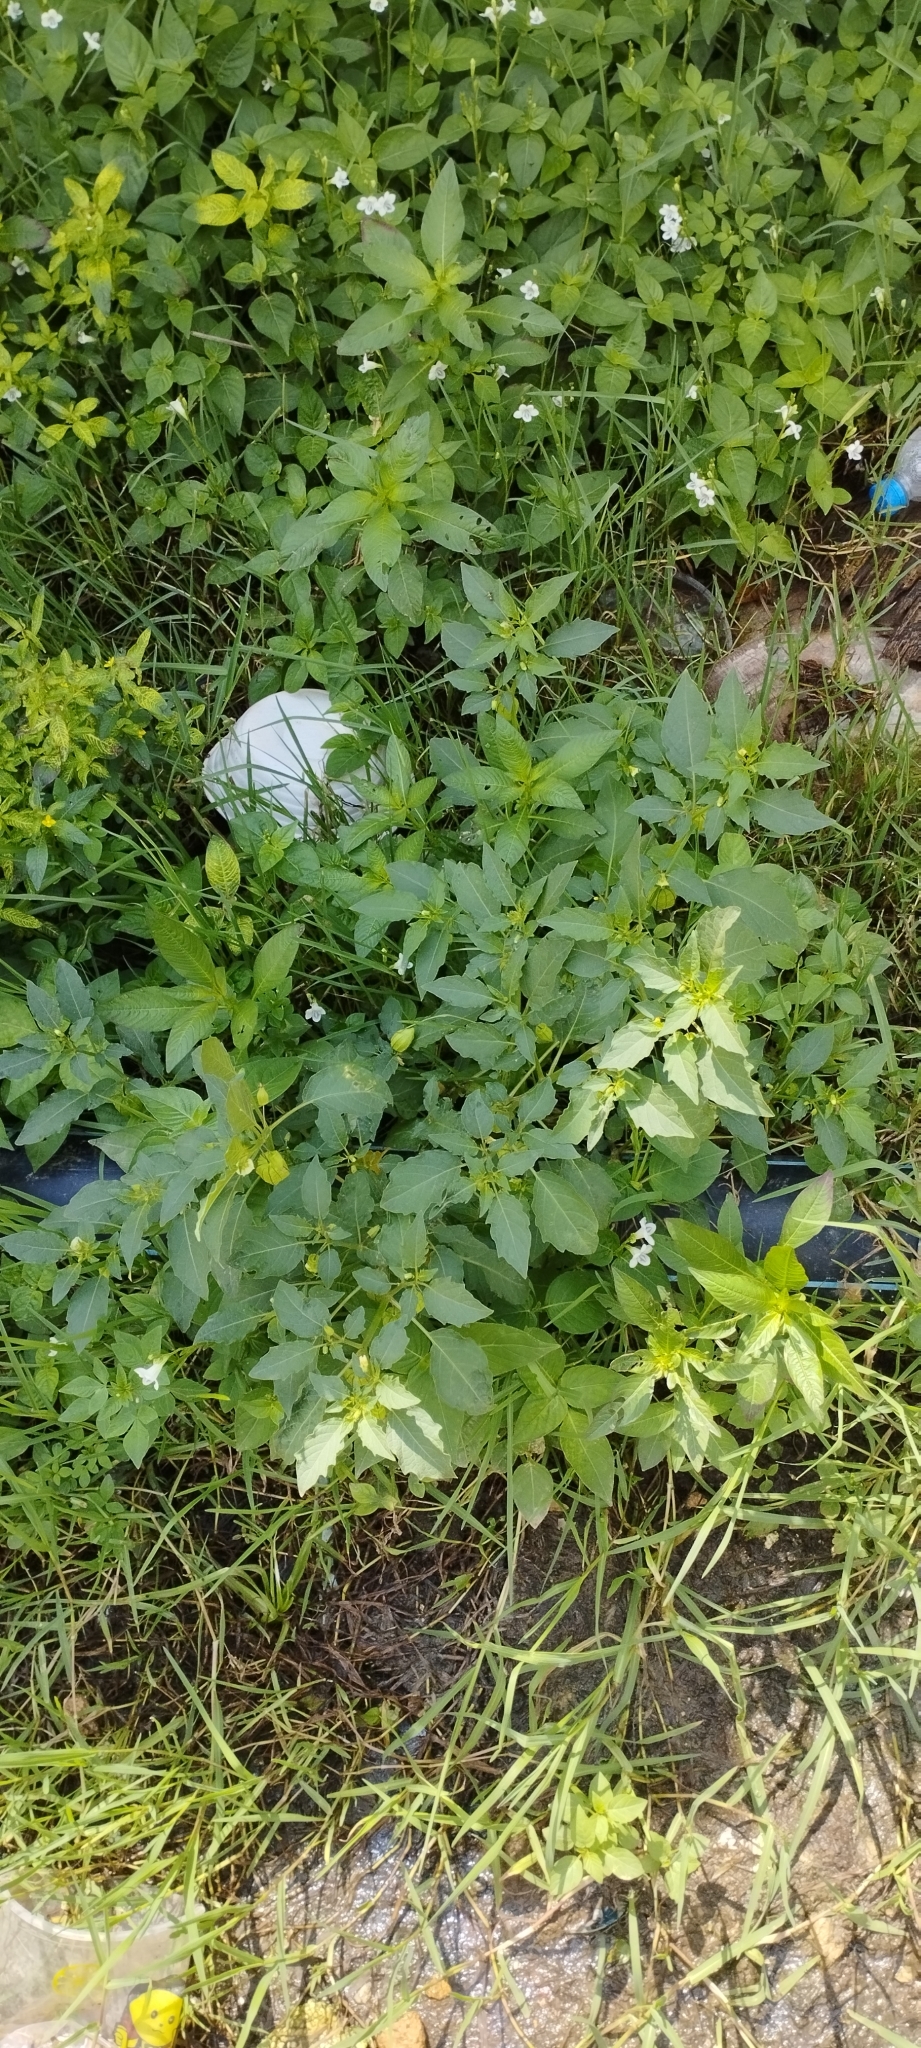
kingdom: Plantae
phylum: Tracheophyta
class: Magnoliopsida
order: Solanales
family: Solanaceae
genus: Physalis
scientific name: Physalis angulata
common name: Angular winter-cherry
